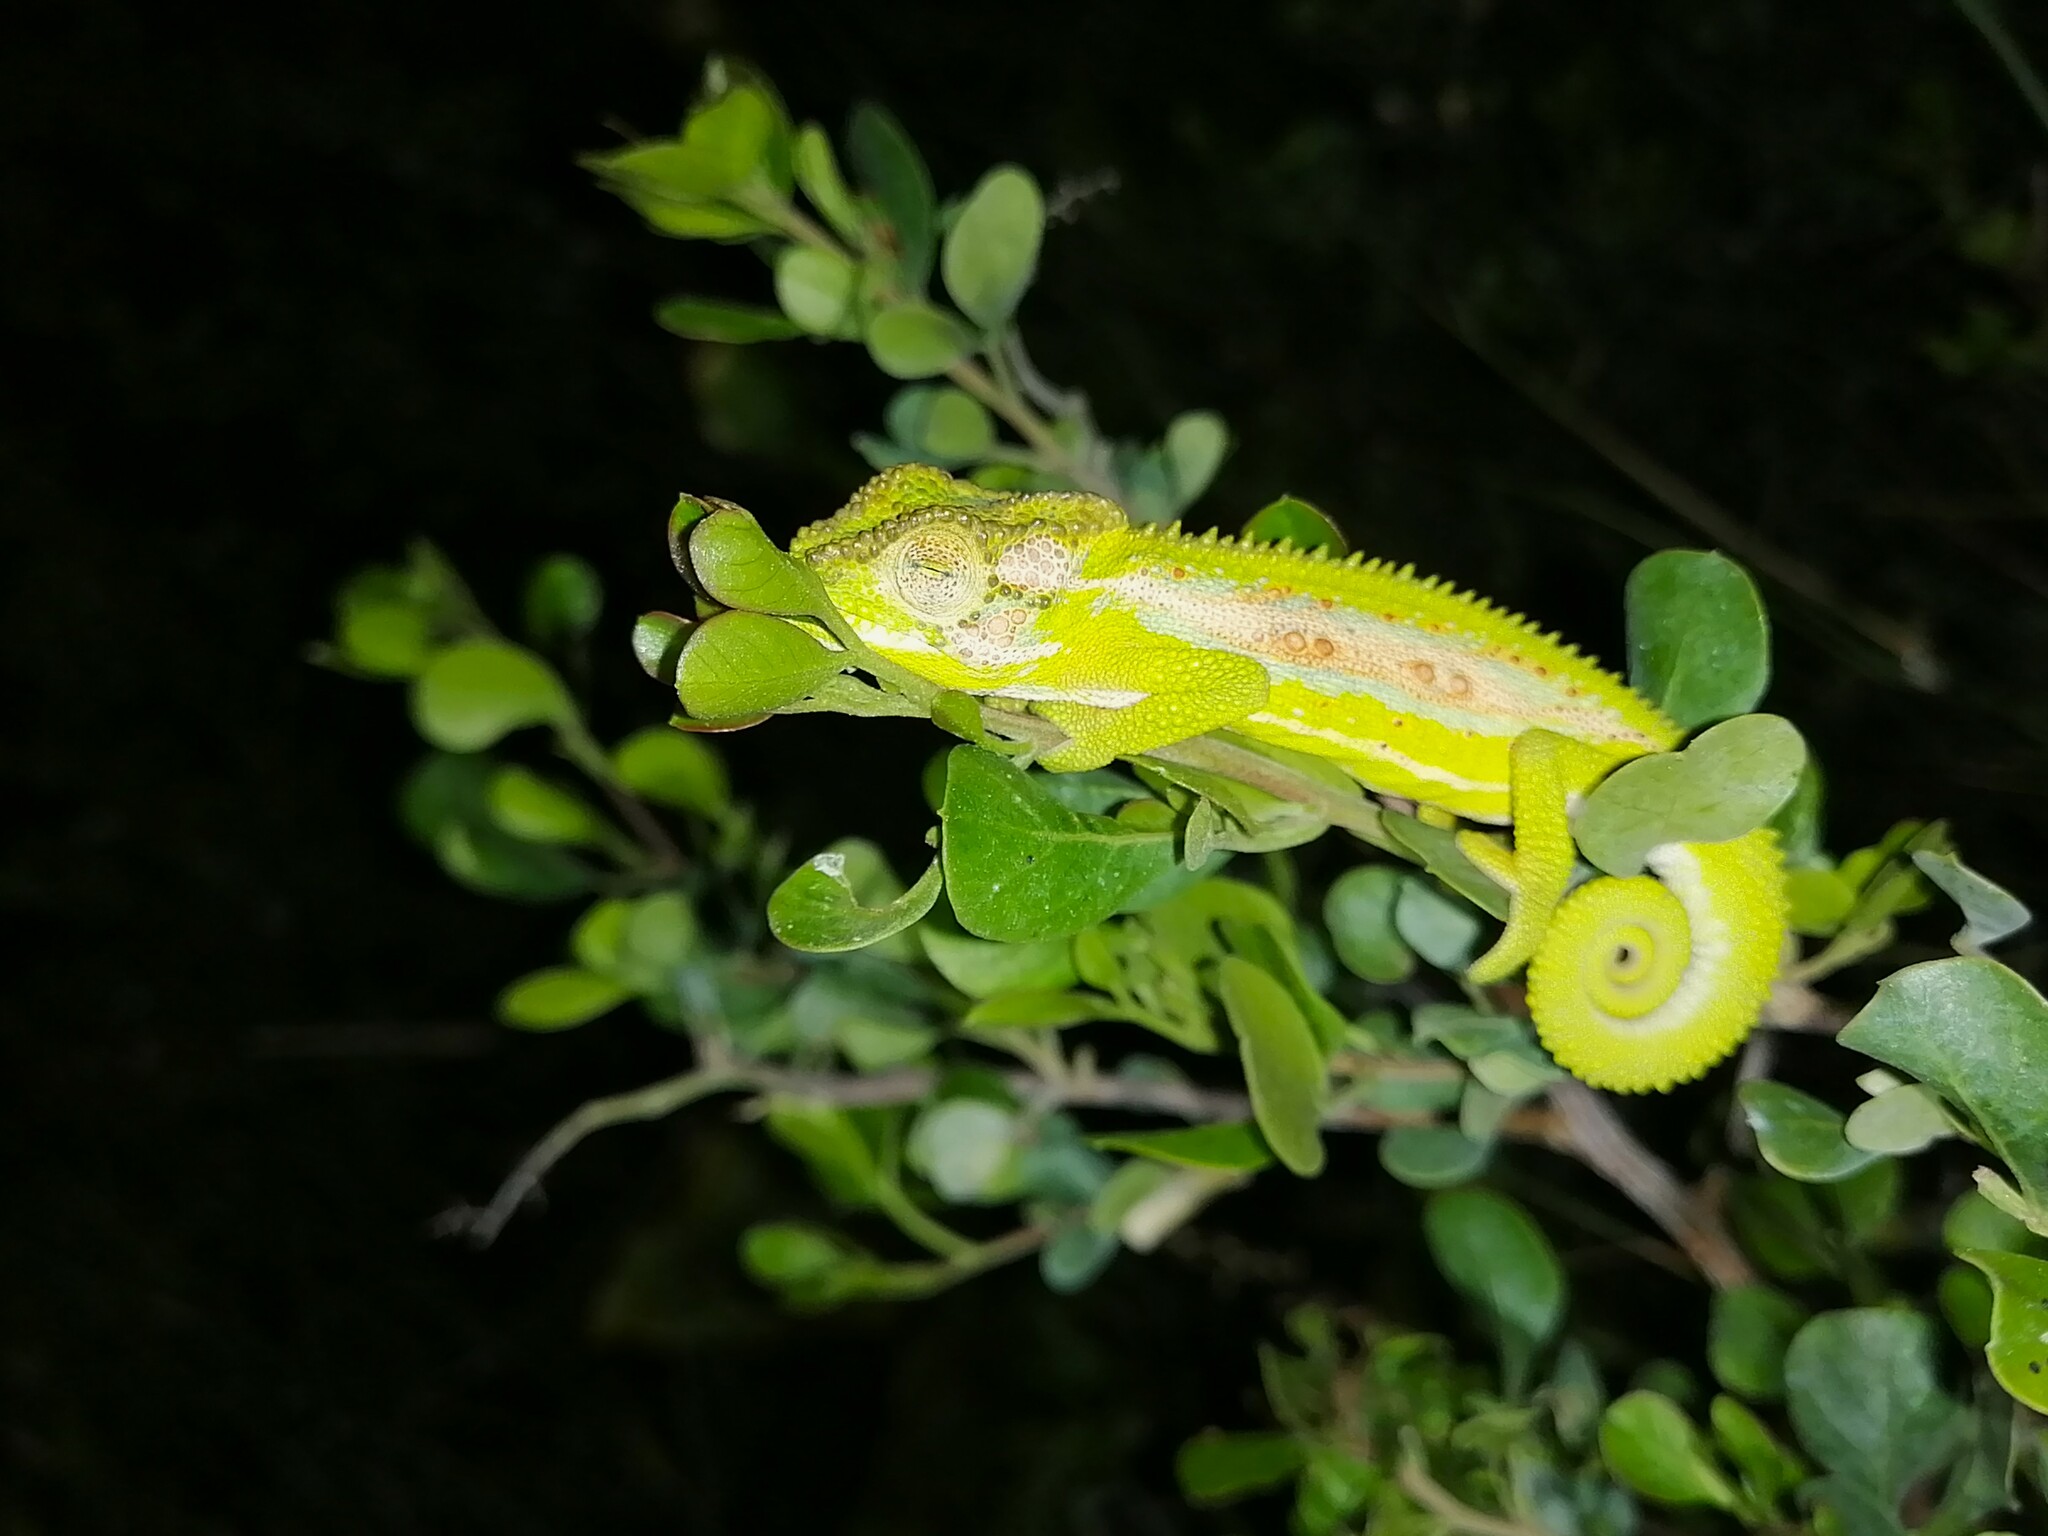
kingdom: Animalia
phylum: Chordata
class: Squamata
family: Chamaeleonidae
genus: Bradypodion
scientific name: Bradypodion pumilum
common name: Cape dwarf chameleon
